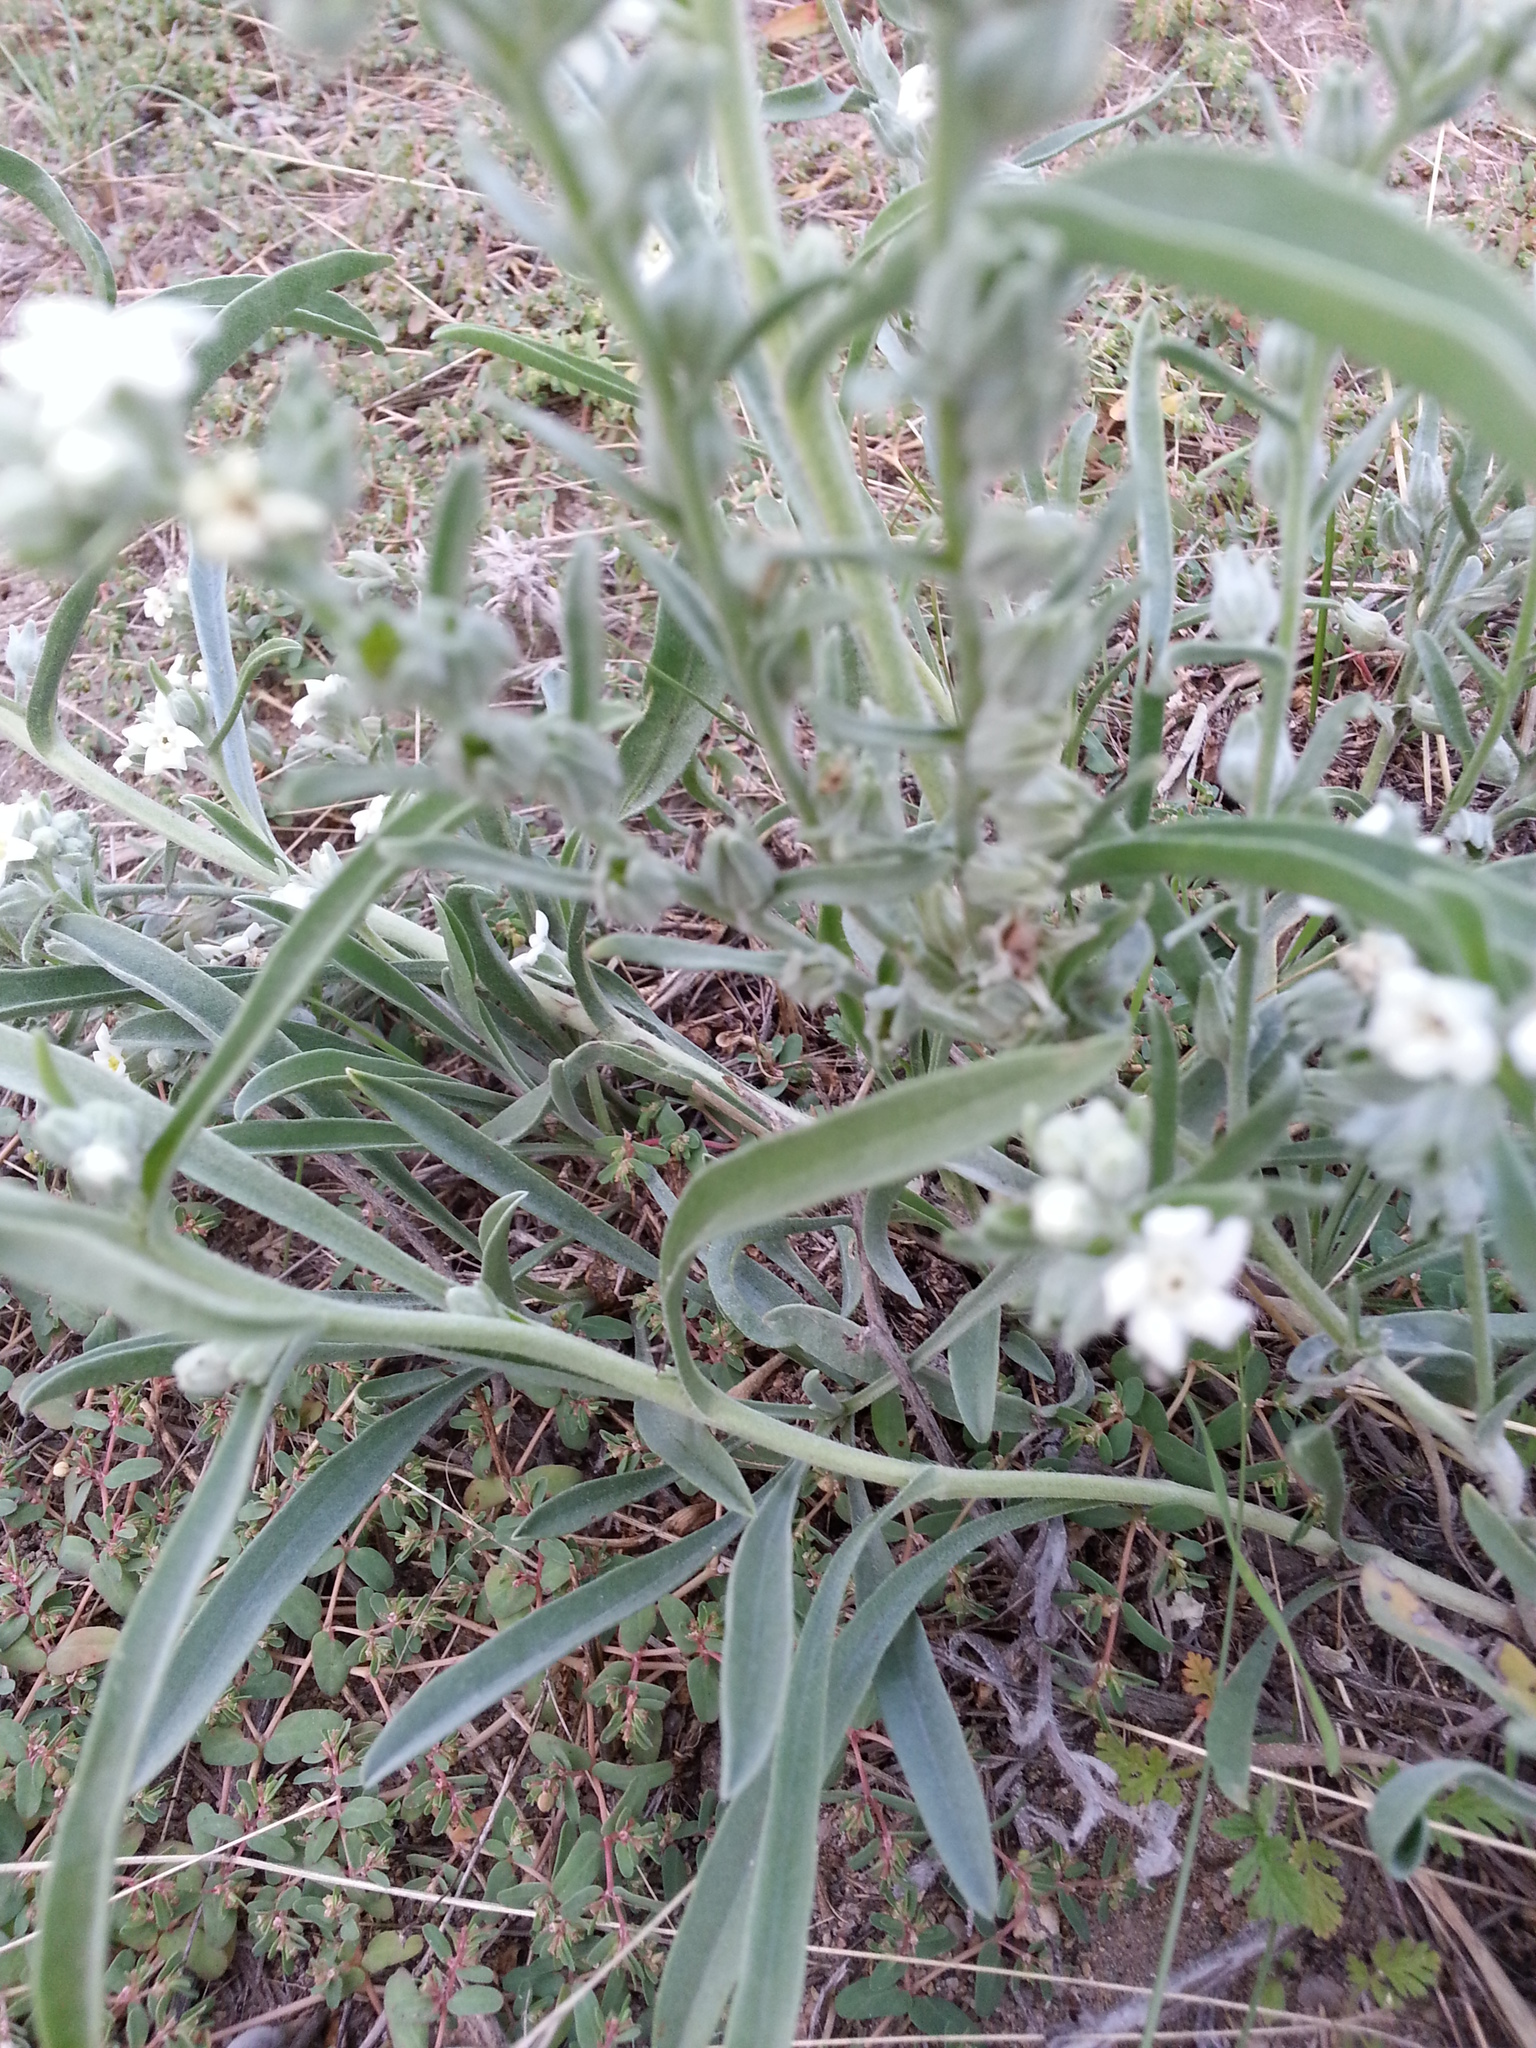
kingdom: Plantae
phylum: Tracheophyta
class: Magnoliopsida
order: Boraginales
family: Boraginaceae
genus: Oreocarya
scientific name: Oreocarya suffruticosa
